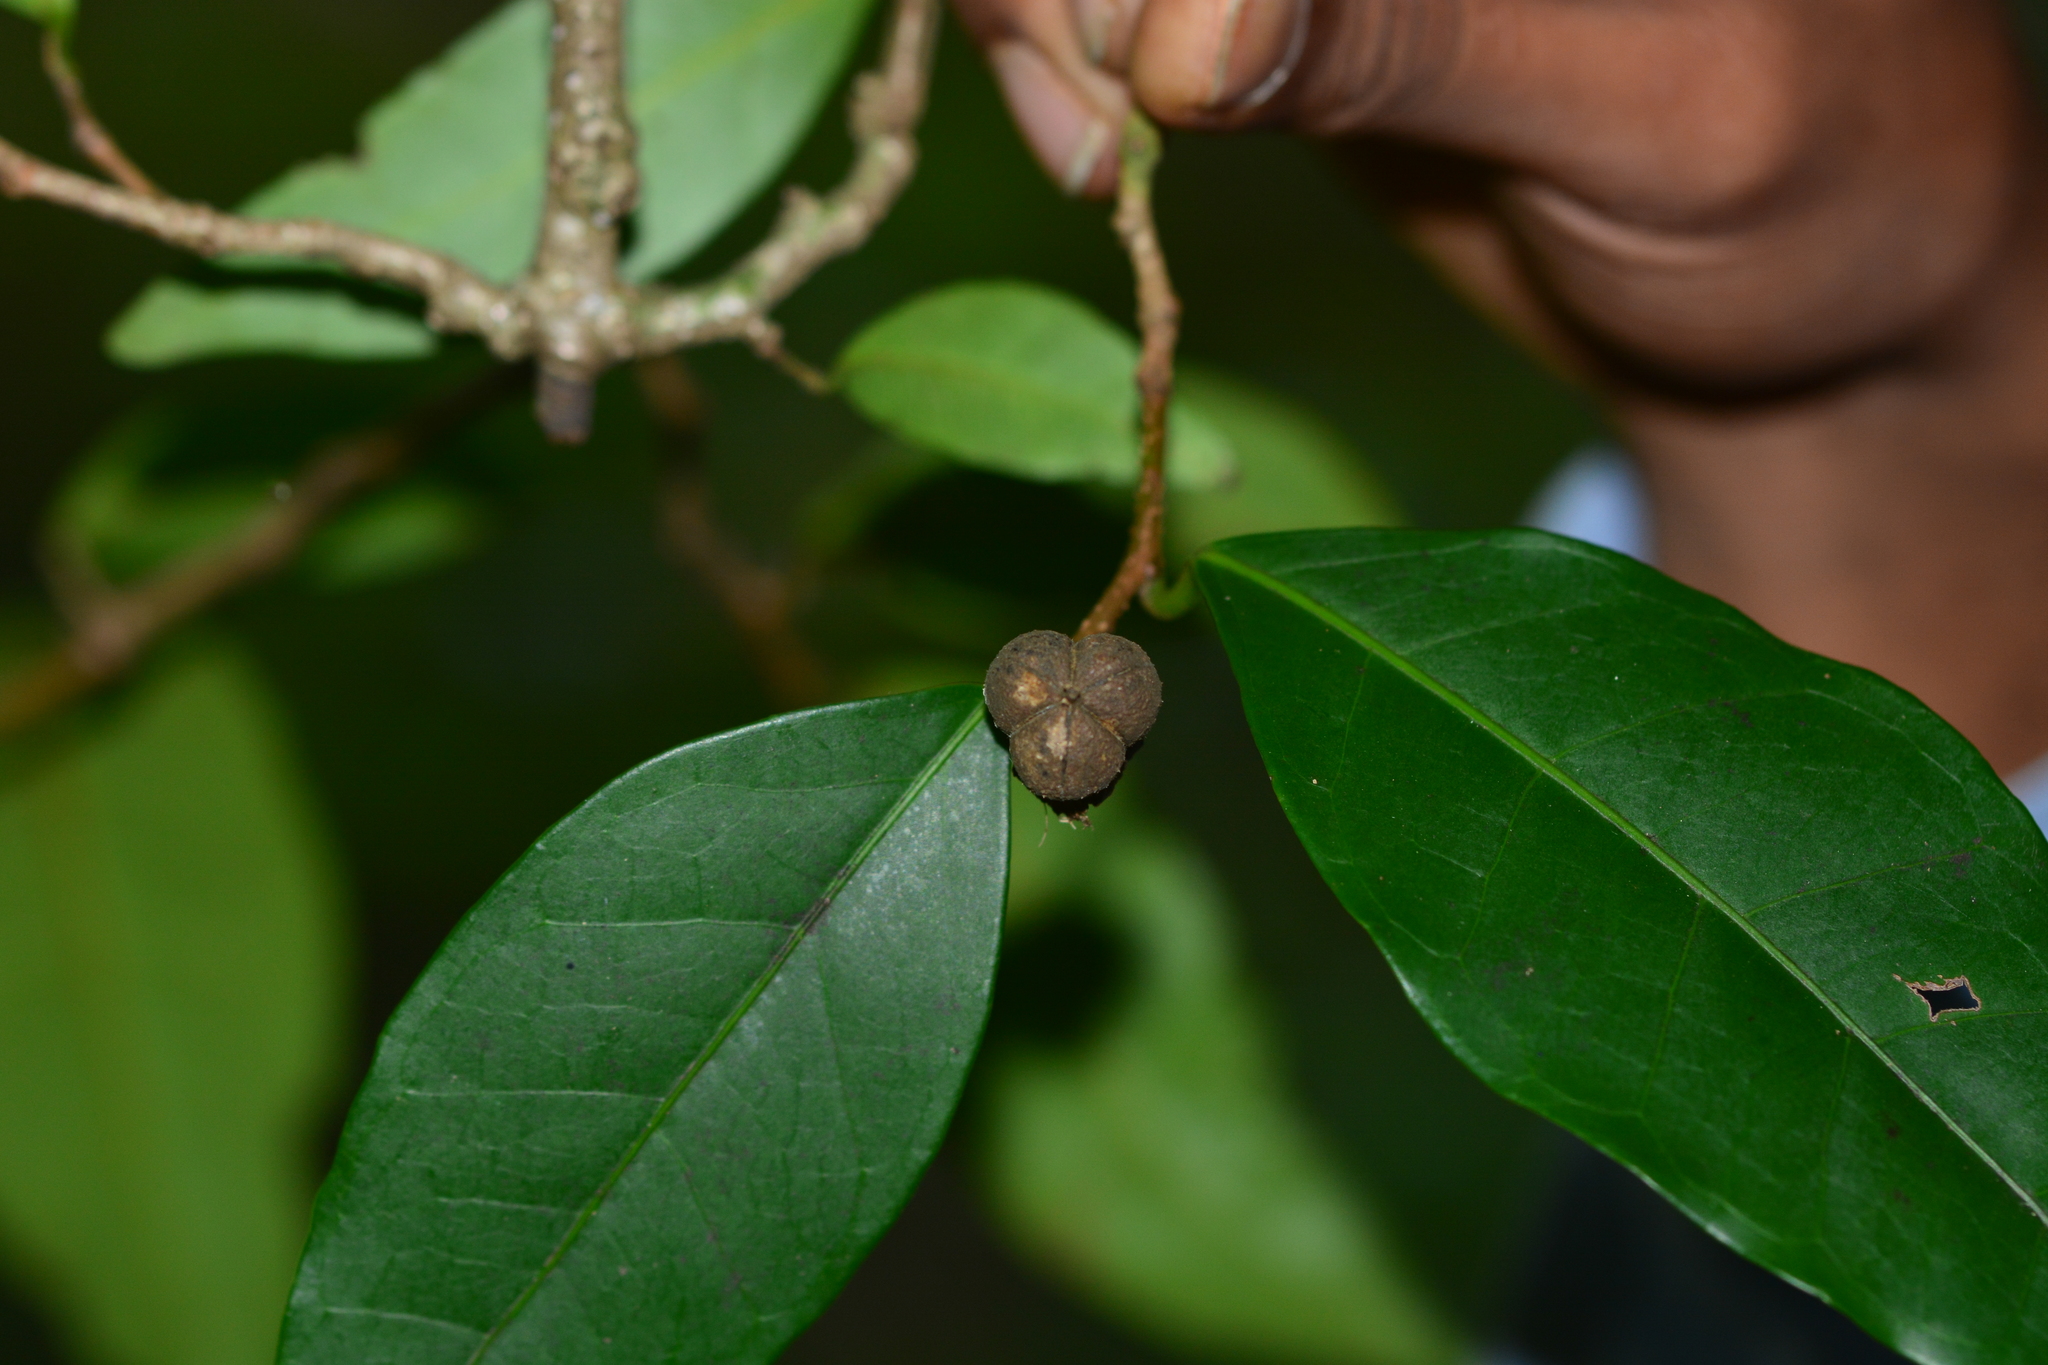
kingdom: Plantae
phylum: Tracheophyta
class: Magnoliopsida
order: Malpighiales
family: Euphorbiaceae
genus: Tritaxis
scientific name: Tritaxis glabella
